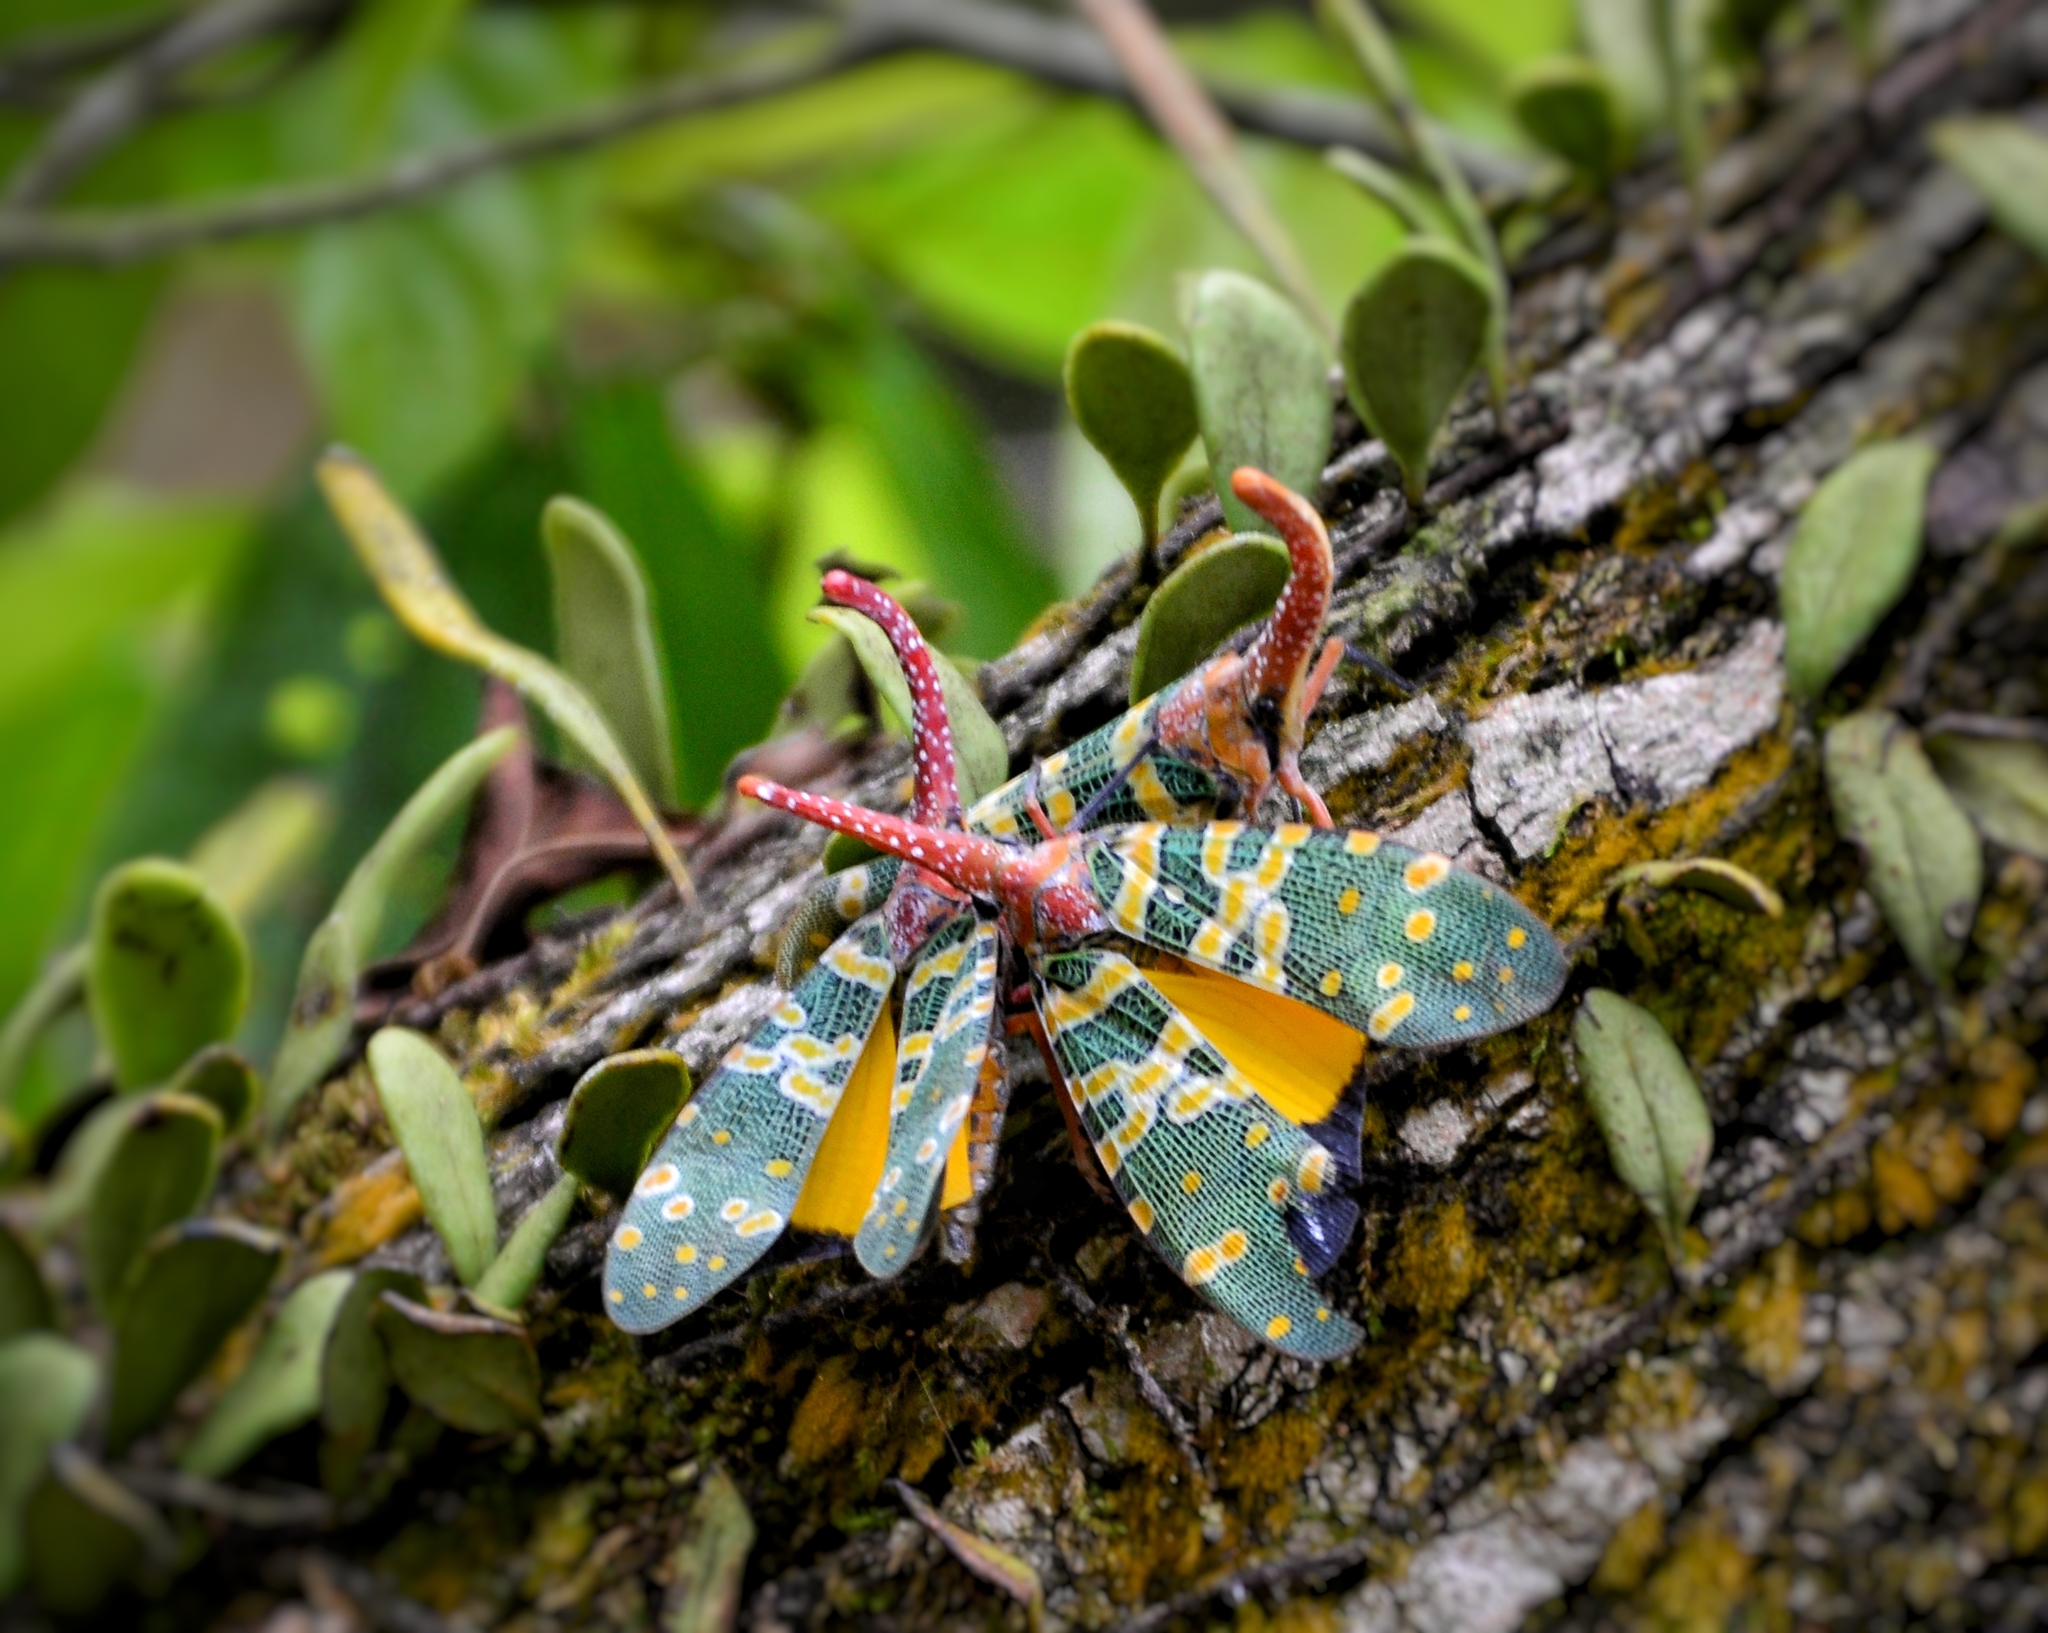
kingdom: Animalia
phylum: Arthropoda
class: Insecta
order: Hemiptera
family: Fulgoridae
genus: Pyrops
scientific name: Pyrops candelaria
